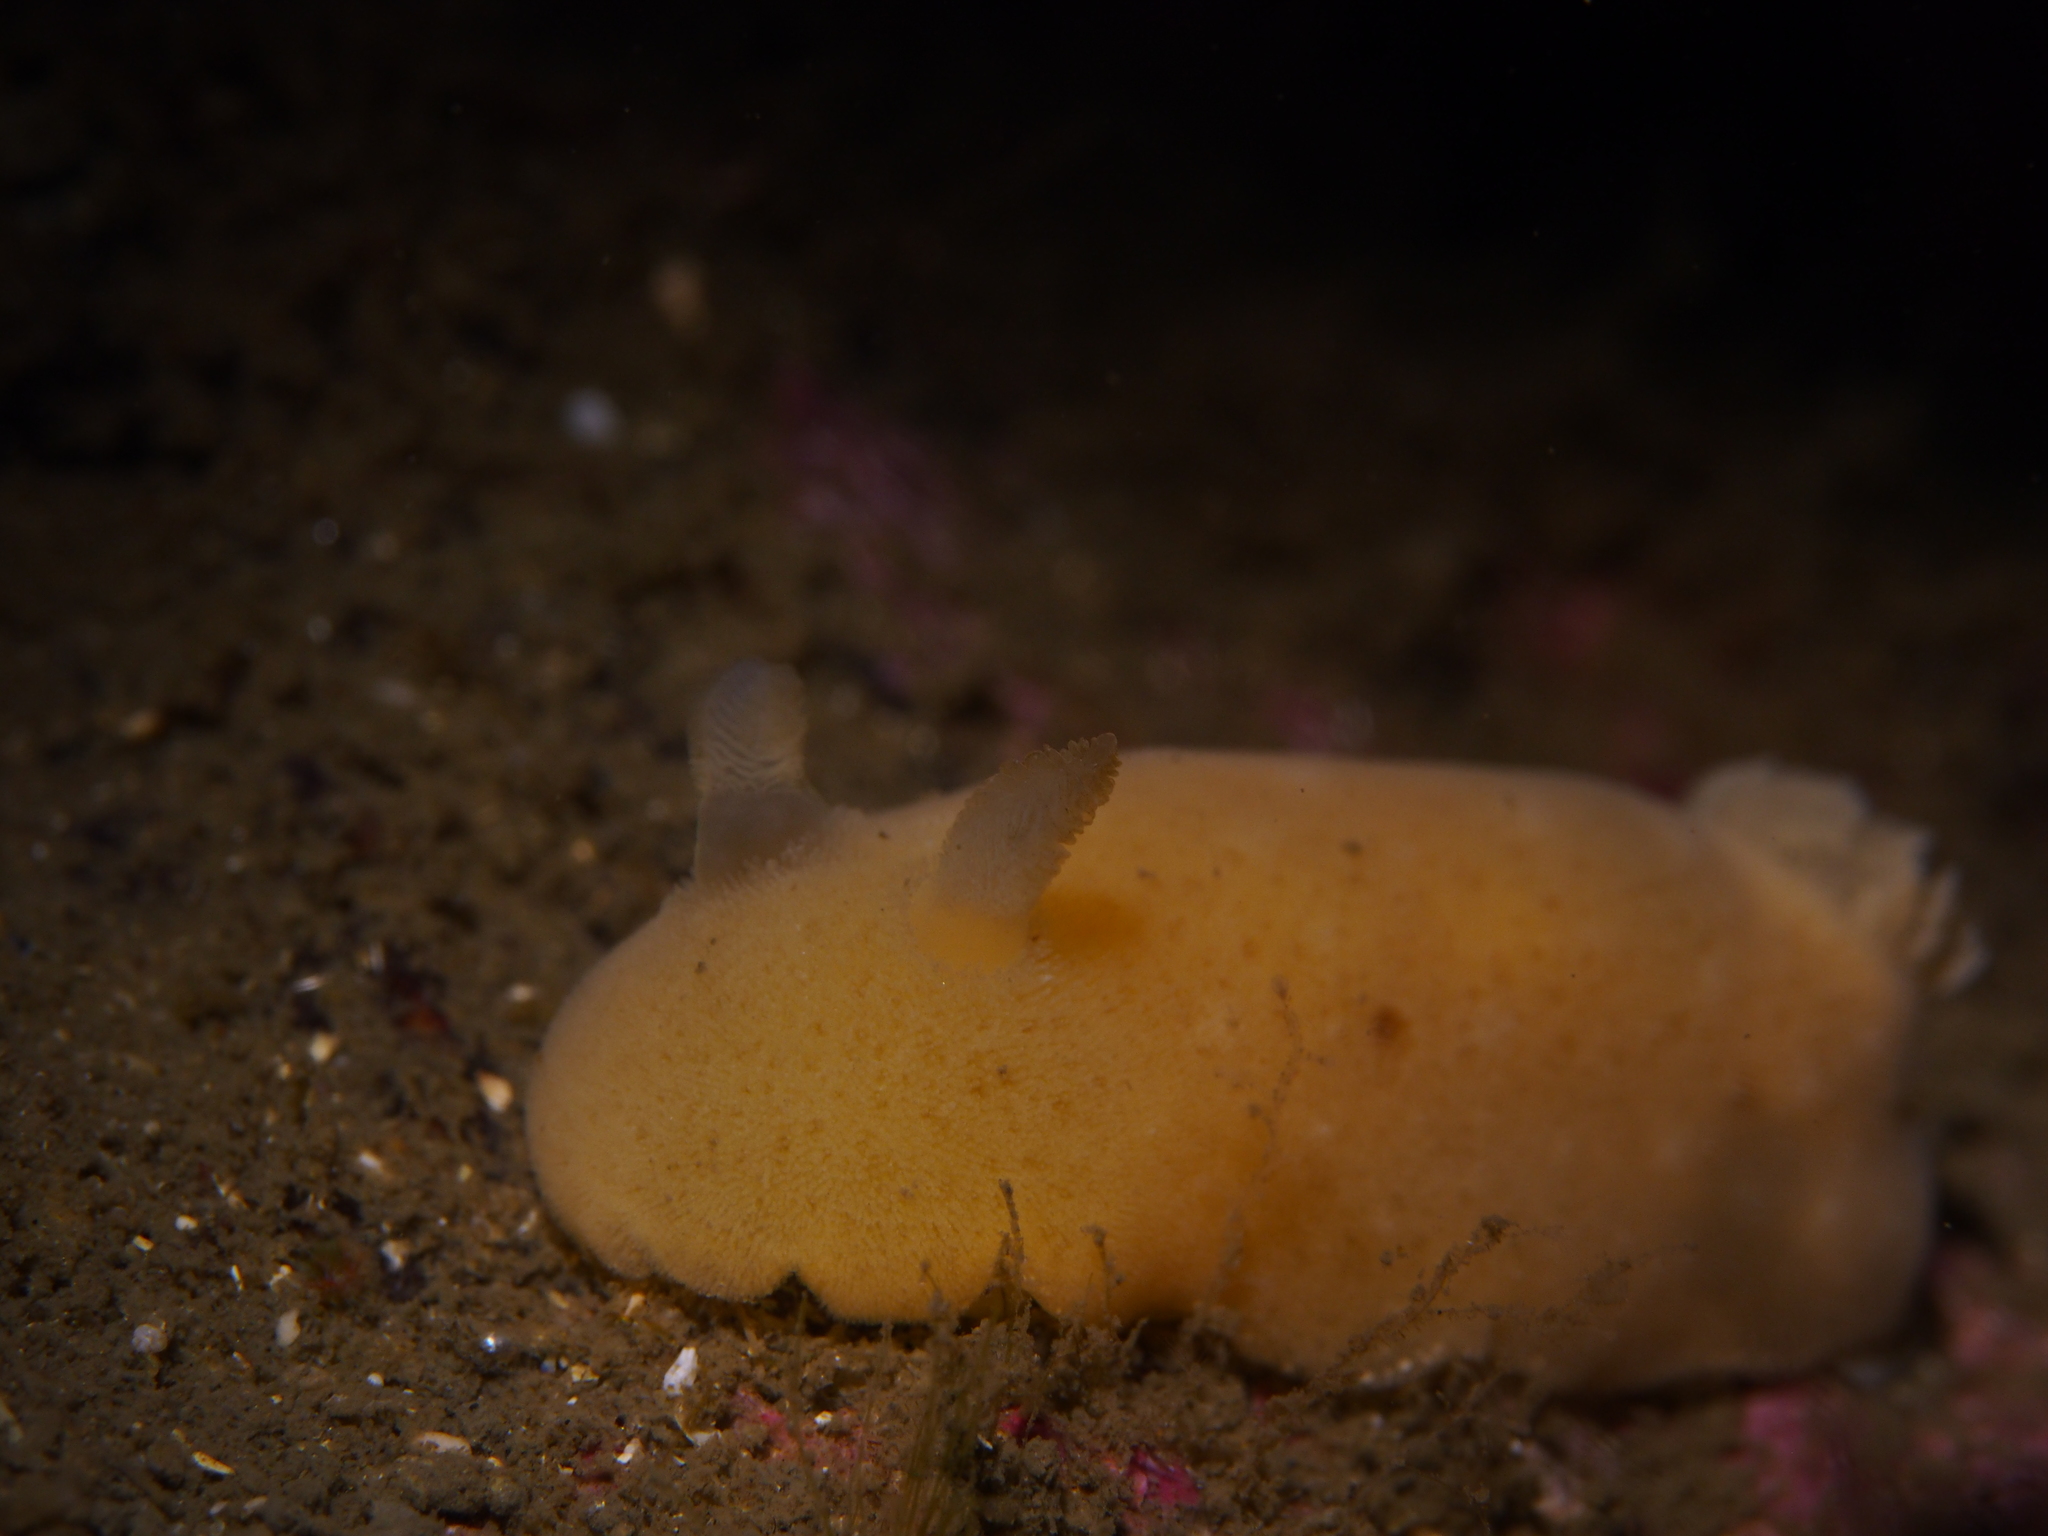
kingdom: Animalia
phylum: Mollusca
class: Gastropoda
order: Nudibranchia
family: Discodorididae
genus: Jorunna
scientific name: Jorunna tomentosa
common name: Grey sea slug
